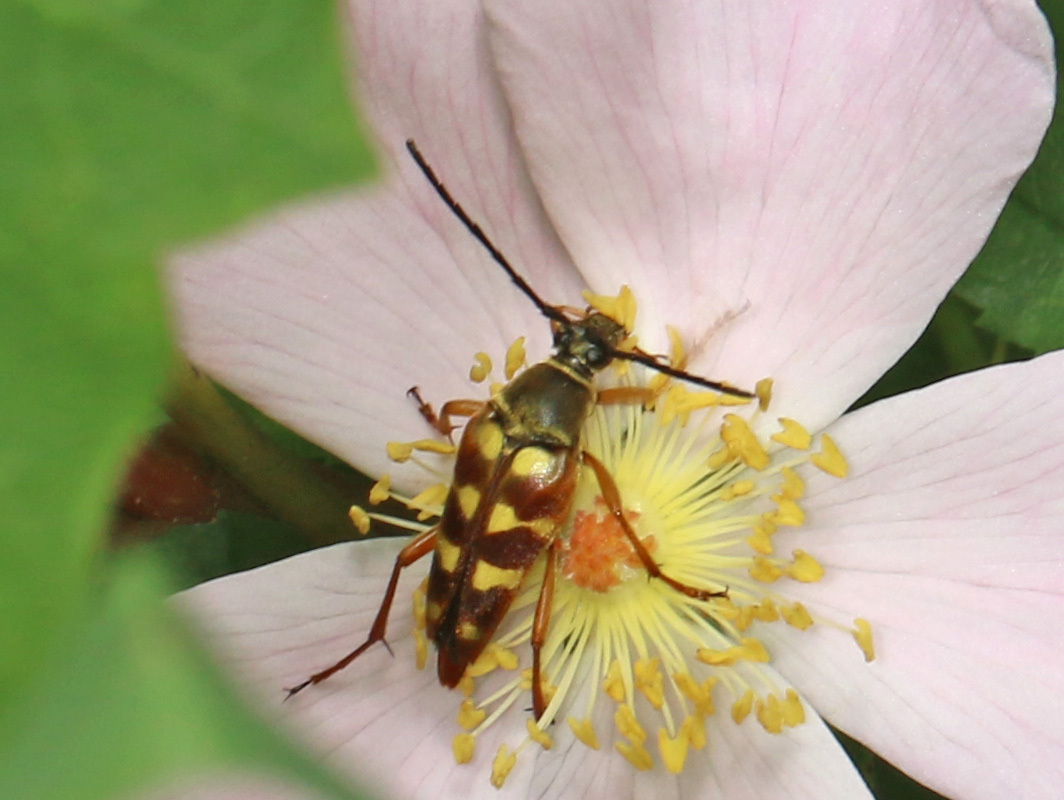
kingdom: Animalia
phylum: Arthropoda
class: Insecta
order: Coleoptera
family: Cerambycidae
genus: Typocerus
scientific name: Typocerus velutinus
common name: Banded longhorn beetle
